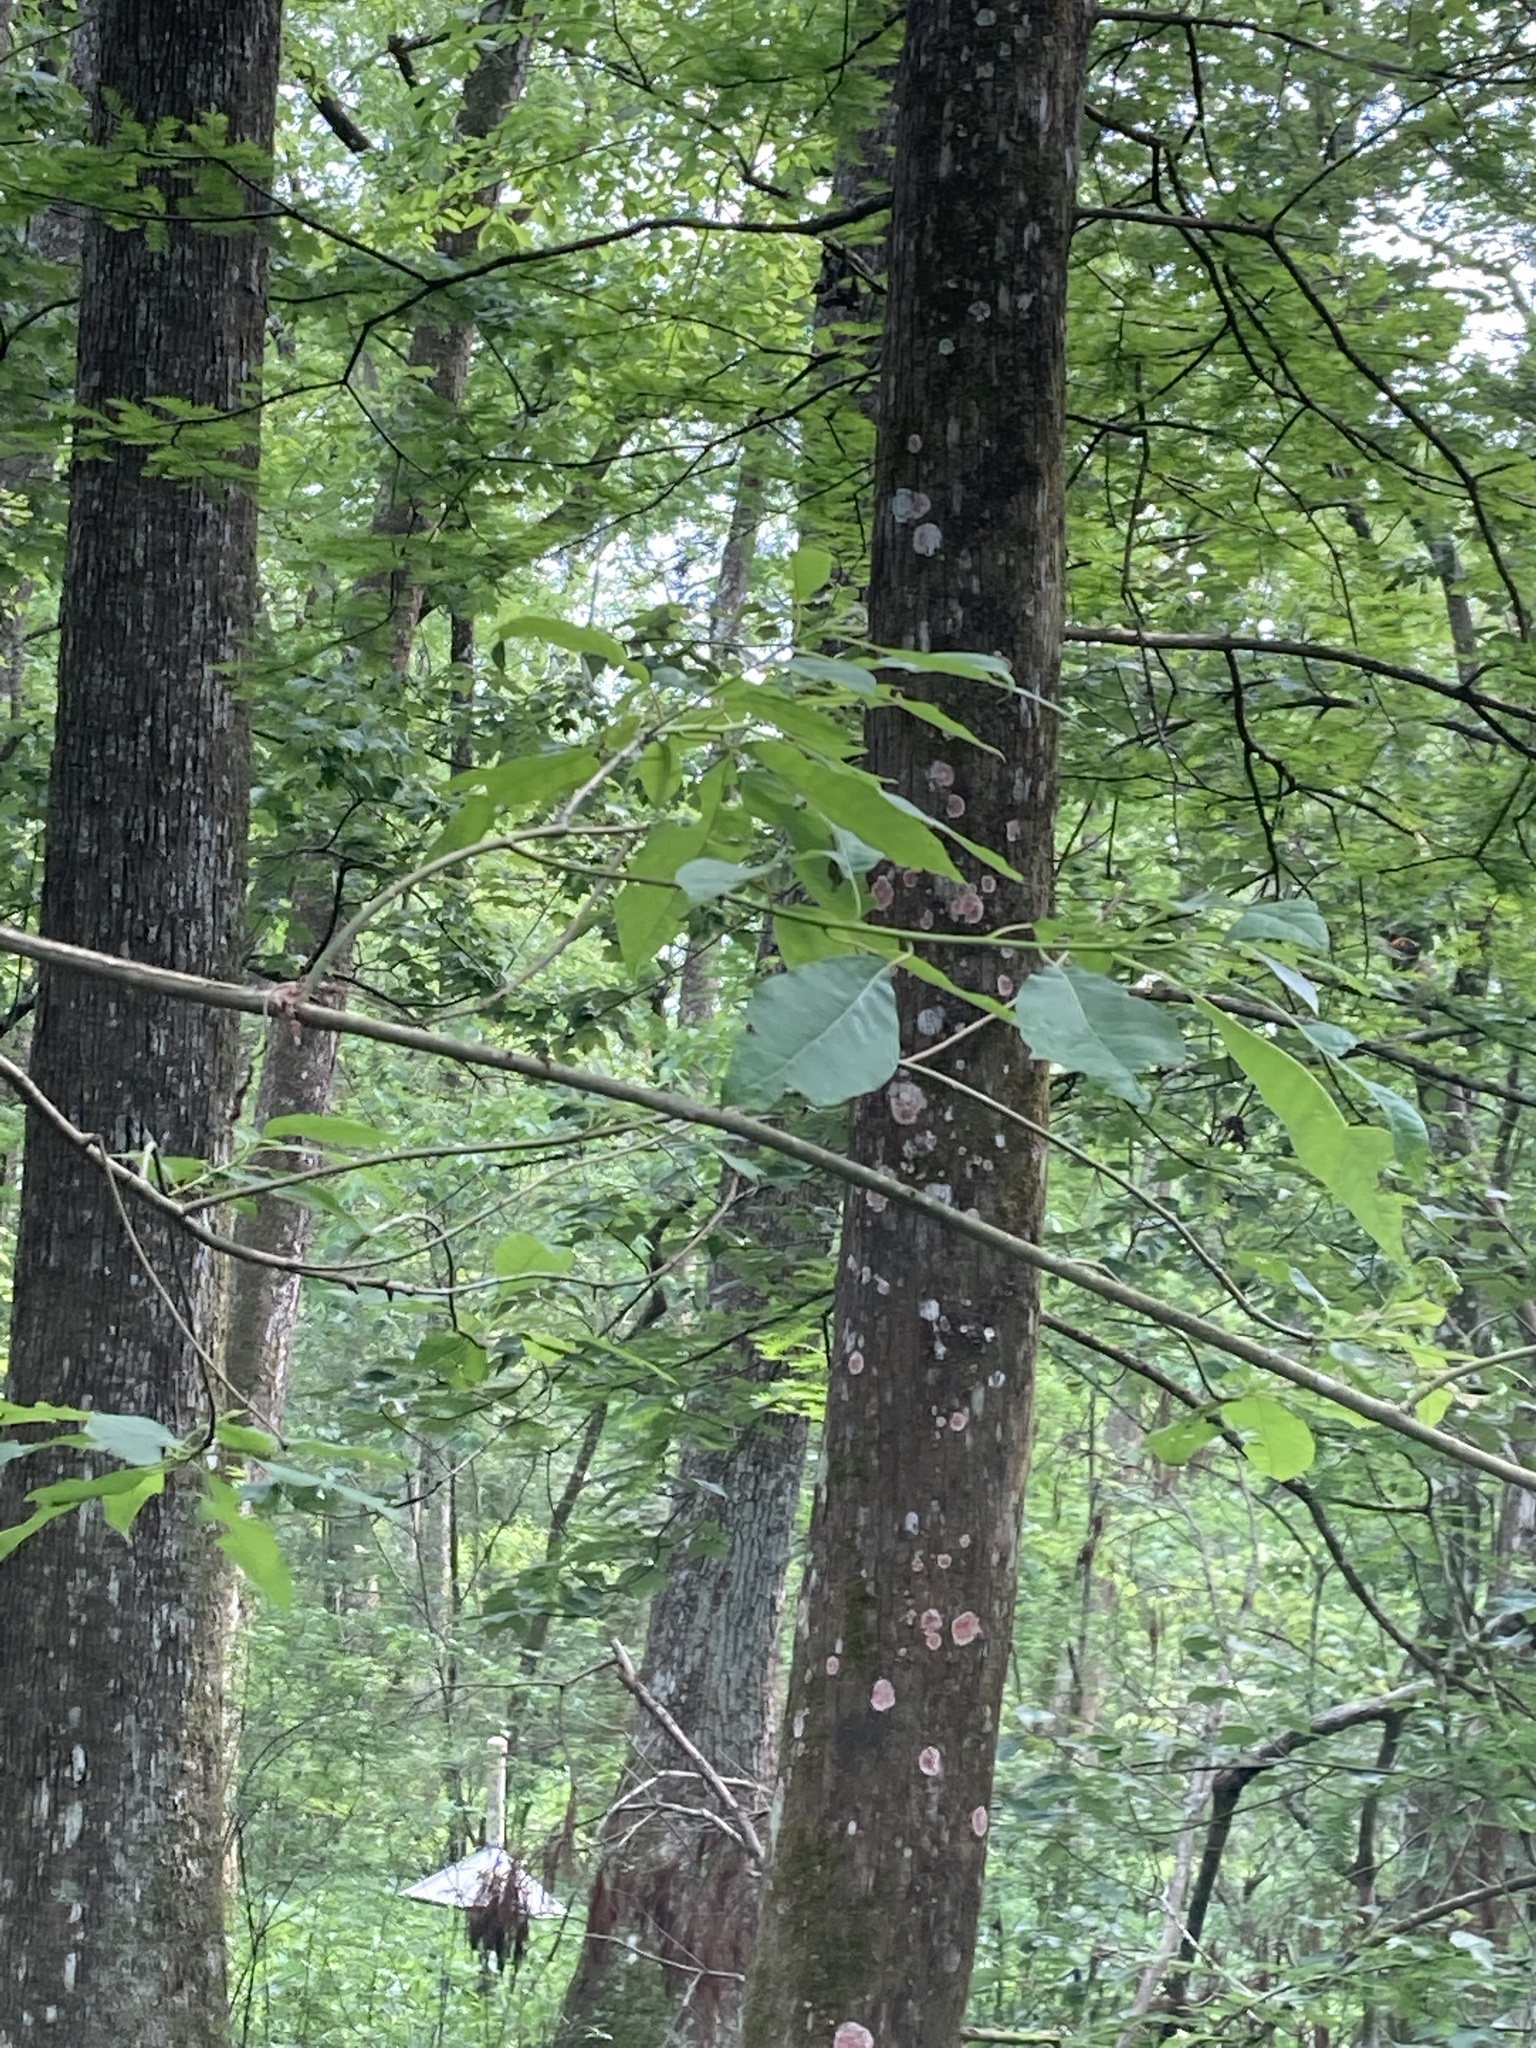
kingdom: Plantae
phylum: Tracheophyta
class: Magnoliopsida
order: Cornales
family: Nyssaceae
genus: Nyssa
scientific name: Nyssa aquatica
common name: Swamp tupelo
